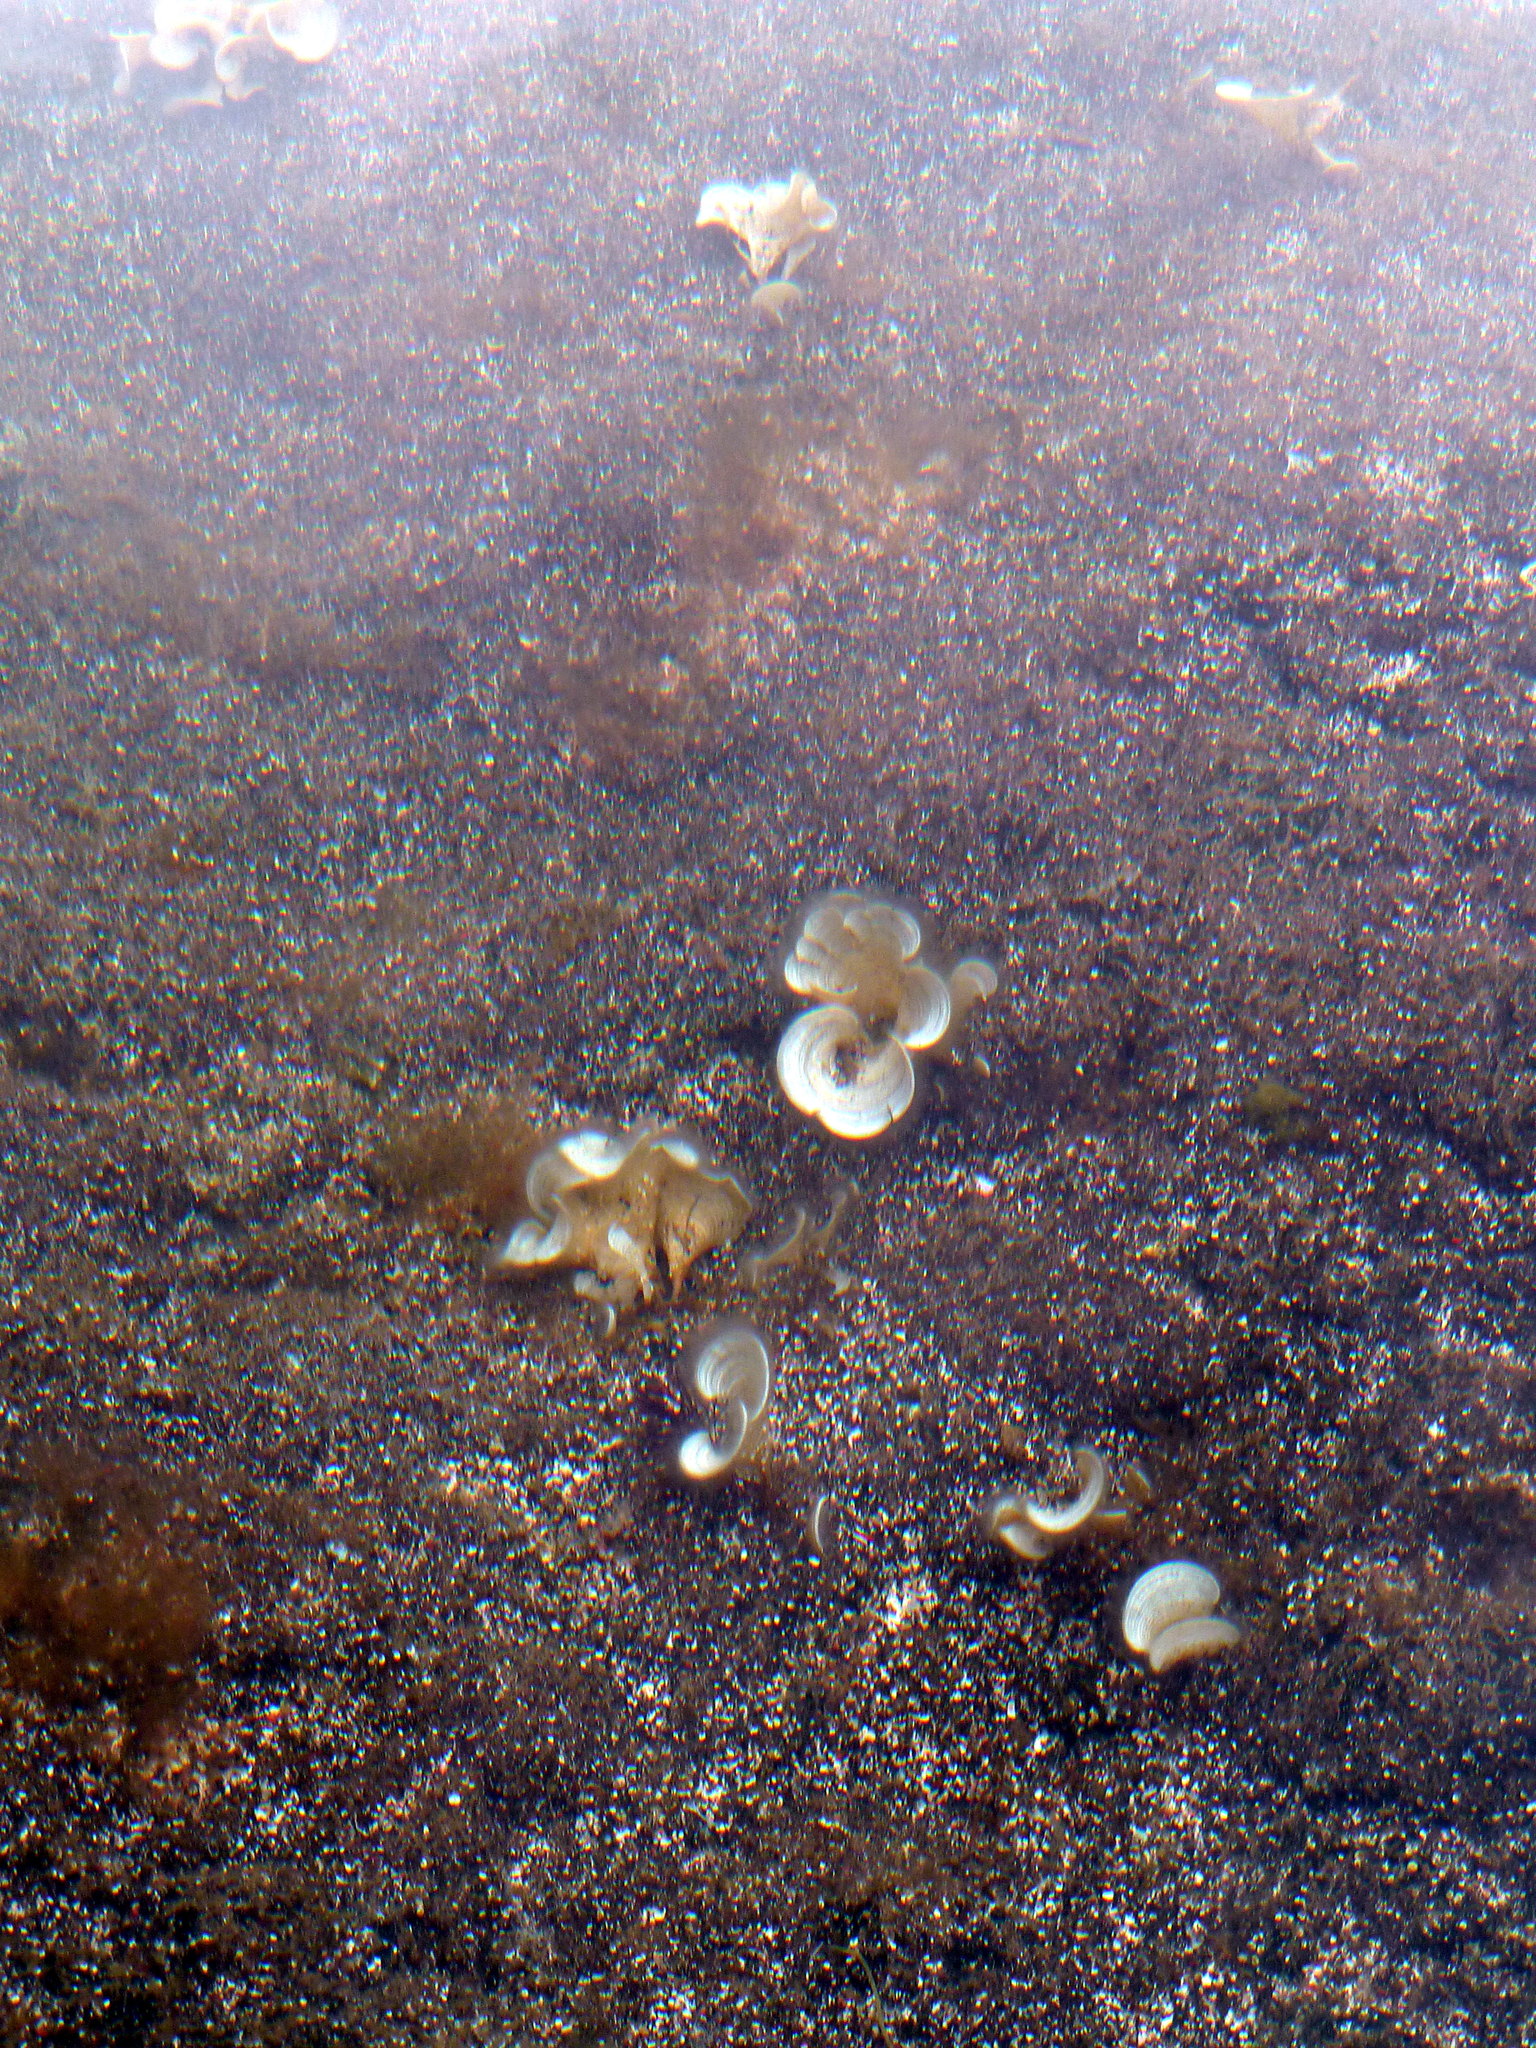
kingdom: Chromista
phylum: Ochrophyta
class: Phaeophyceae
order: Dictyotales
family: Dictyotaceae
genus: Padina
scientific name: Padina pavonica
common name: Turkey feather alga
